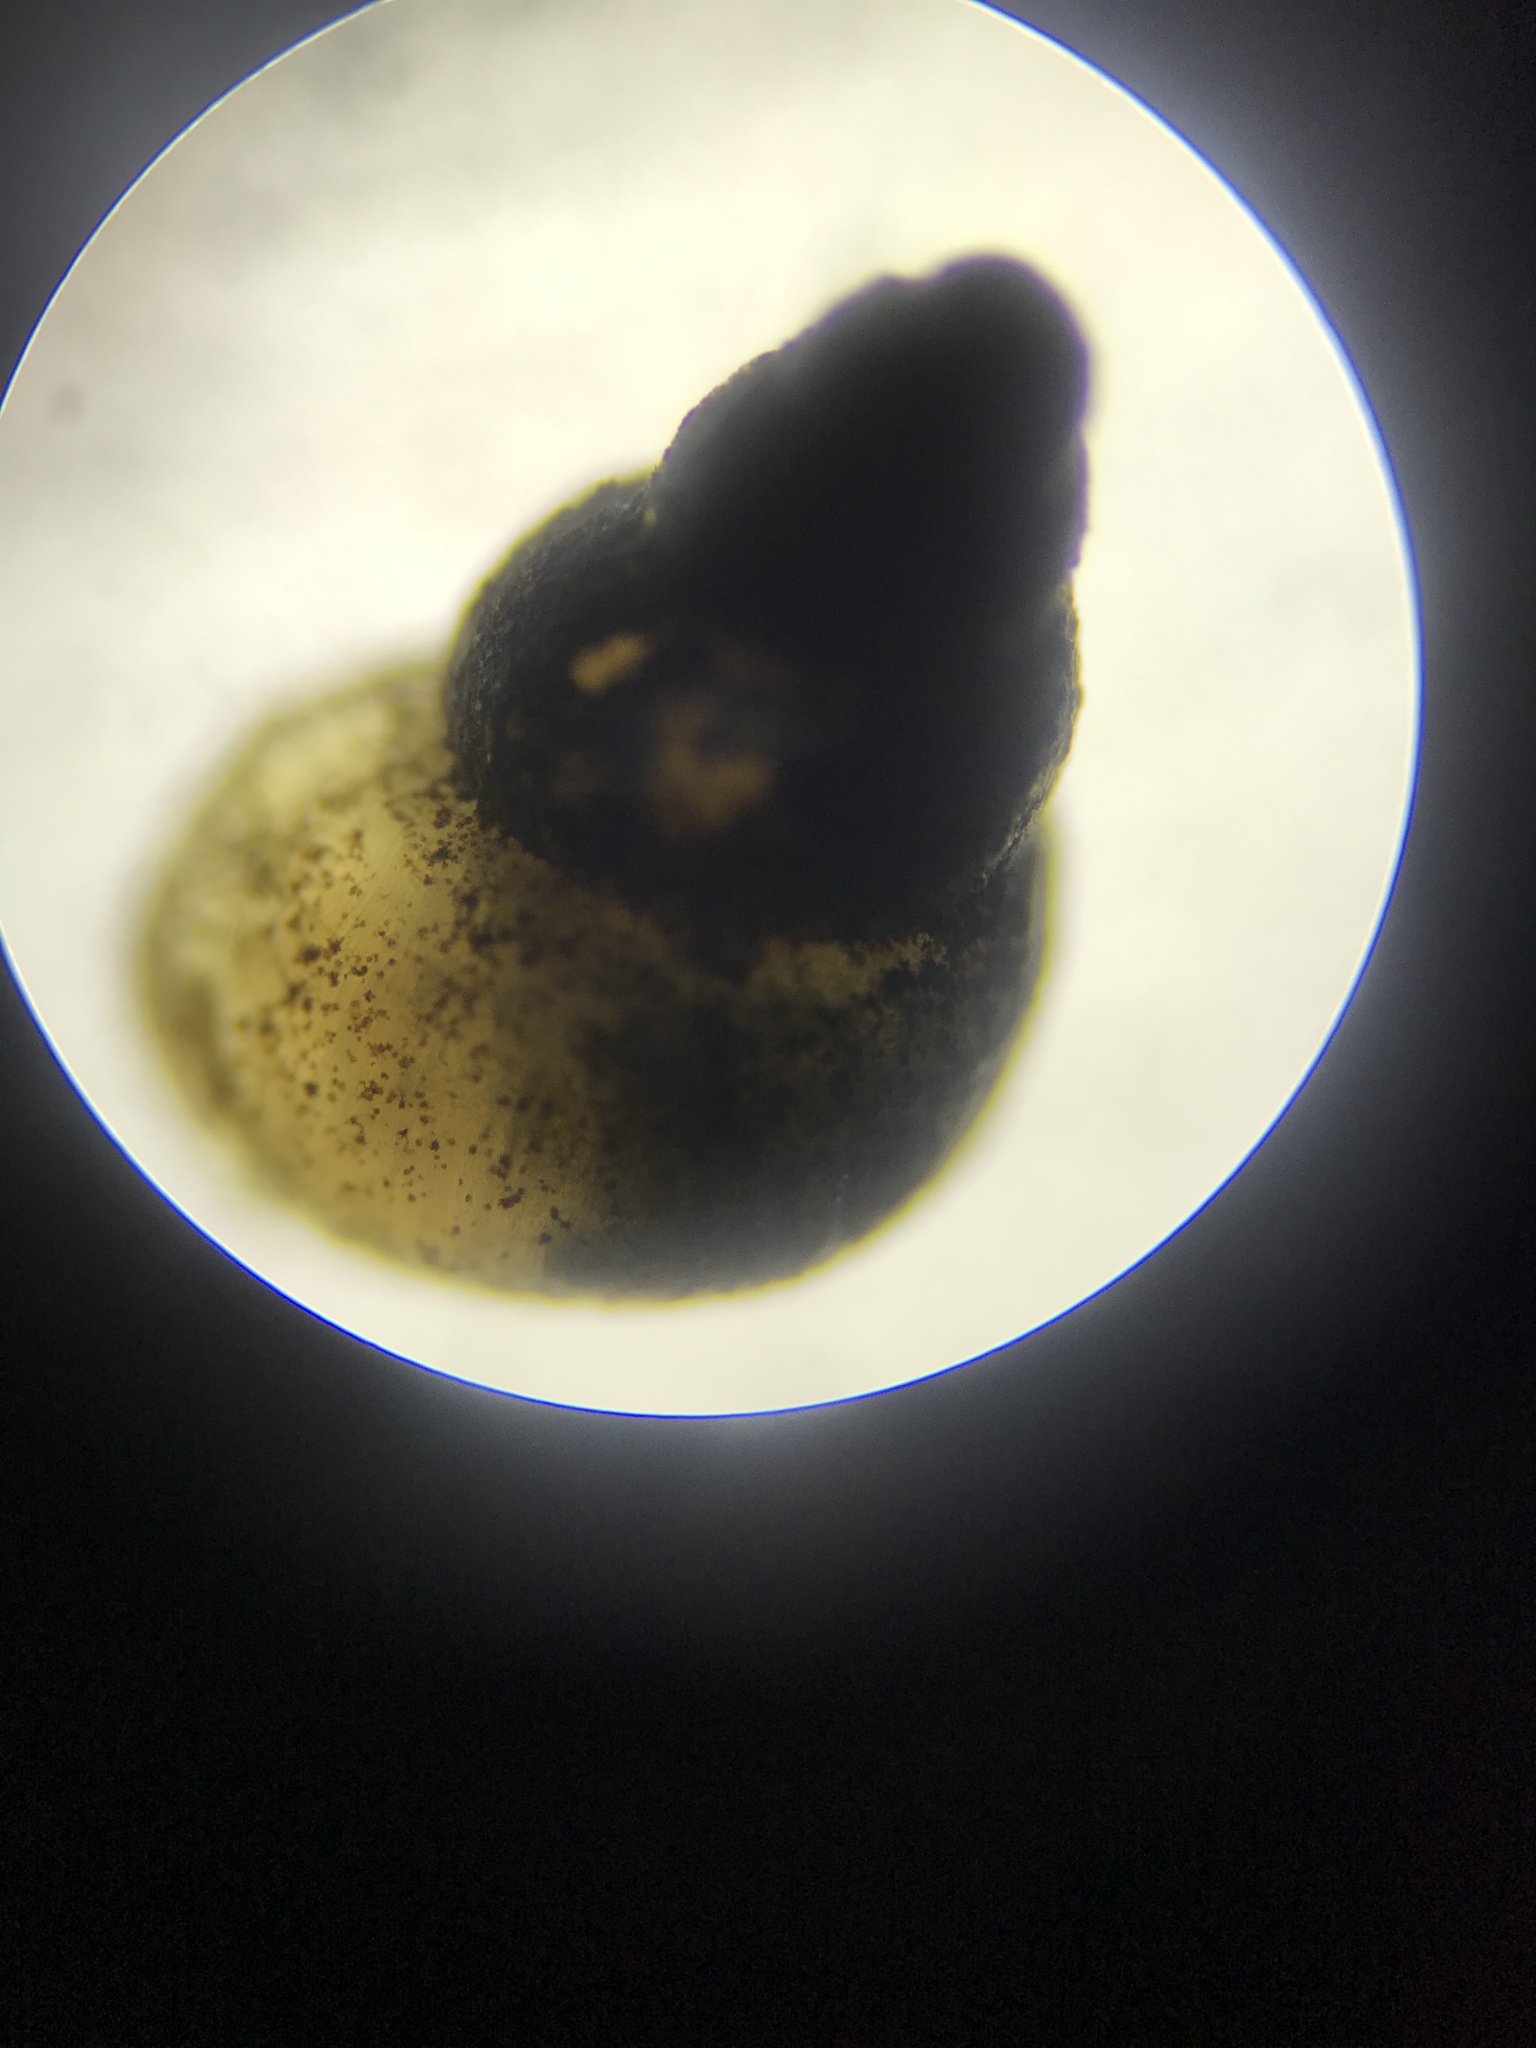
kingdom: Animalia
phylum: Mollusca
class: Gastropoda
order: Littorinimorpha
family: Tateidae
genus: Potamopyrgus
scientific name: Potamopyrgus antipodarum
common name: Jenkins' spire snail
